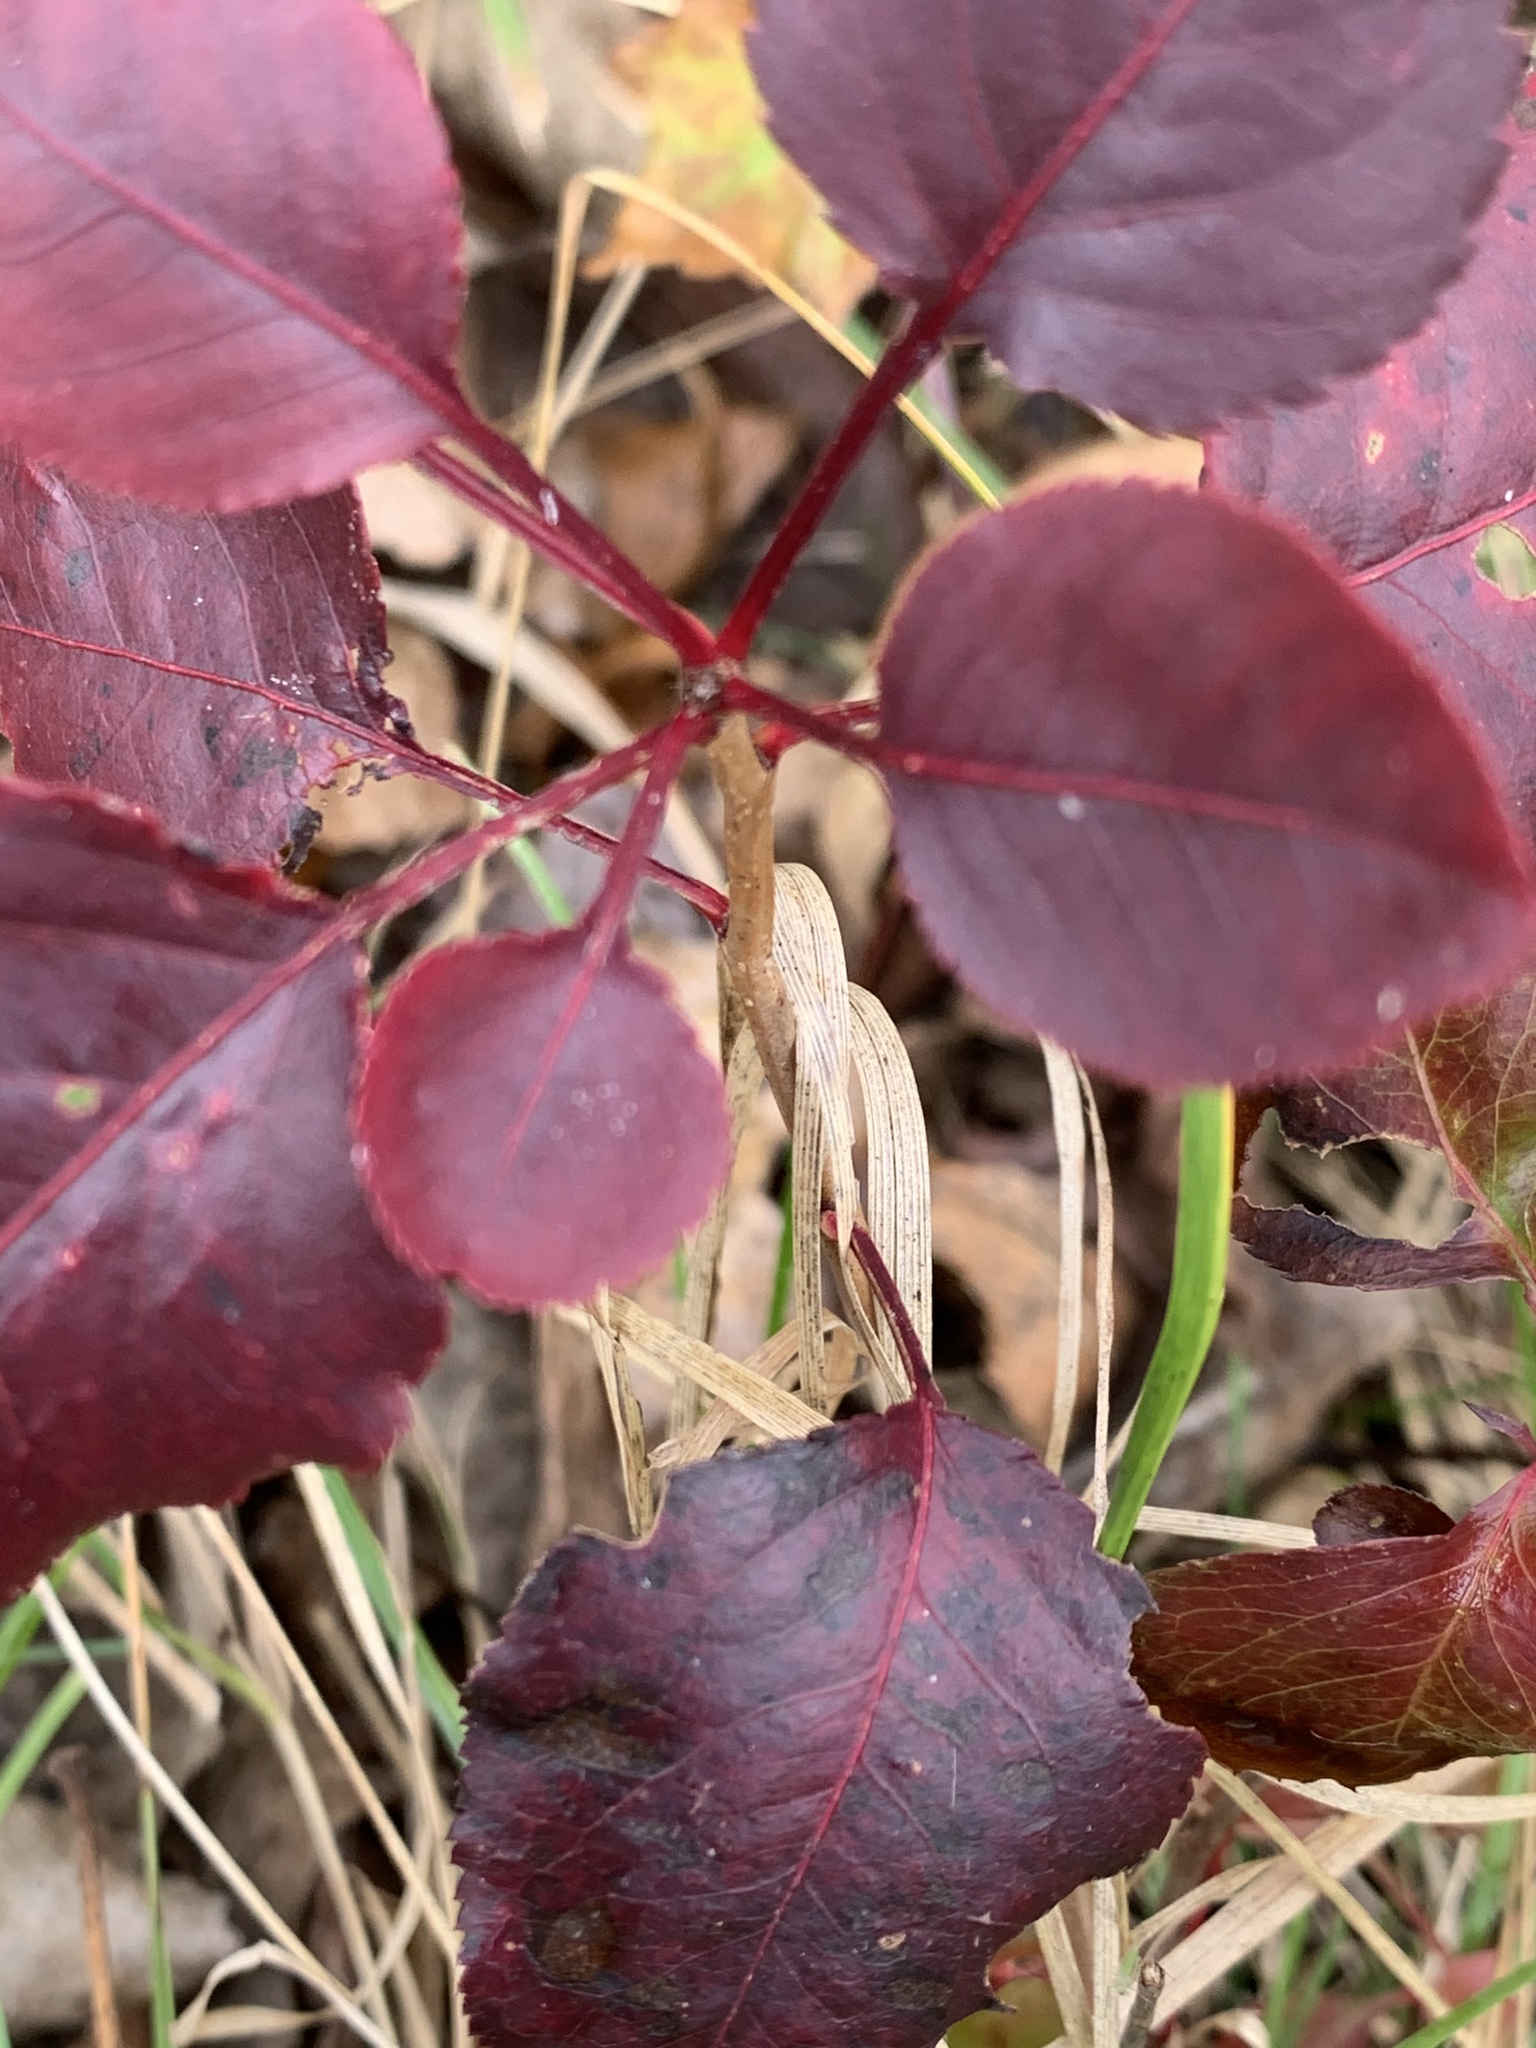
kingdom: Plantae
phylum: Tracheophyta
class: Magnoliopsida
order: Rosales
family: Rosaceae
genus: Pyrus
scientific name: Pyrus calleryana
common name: Callery pear
